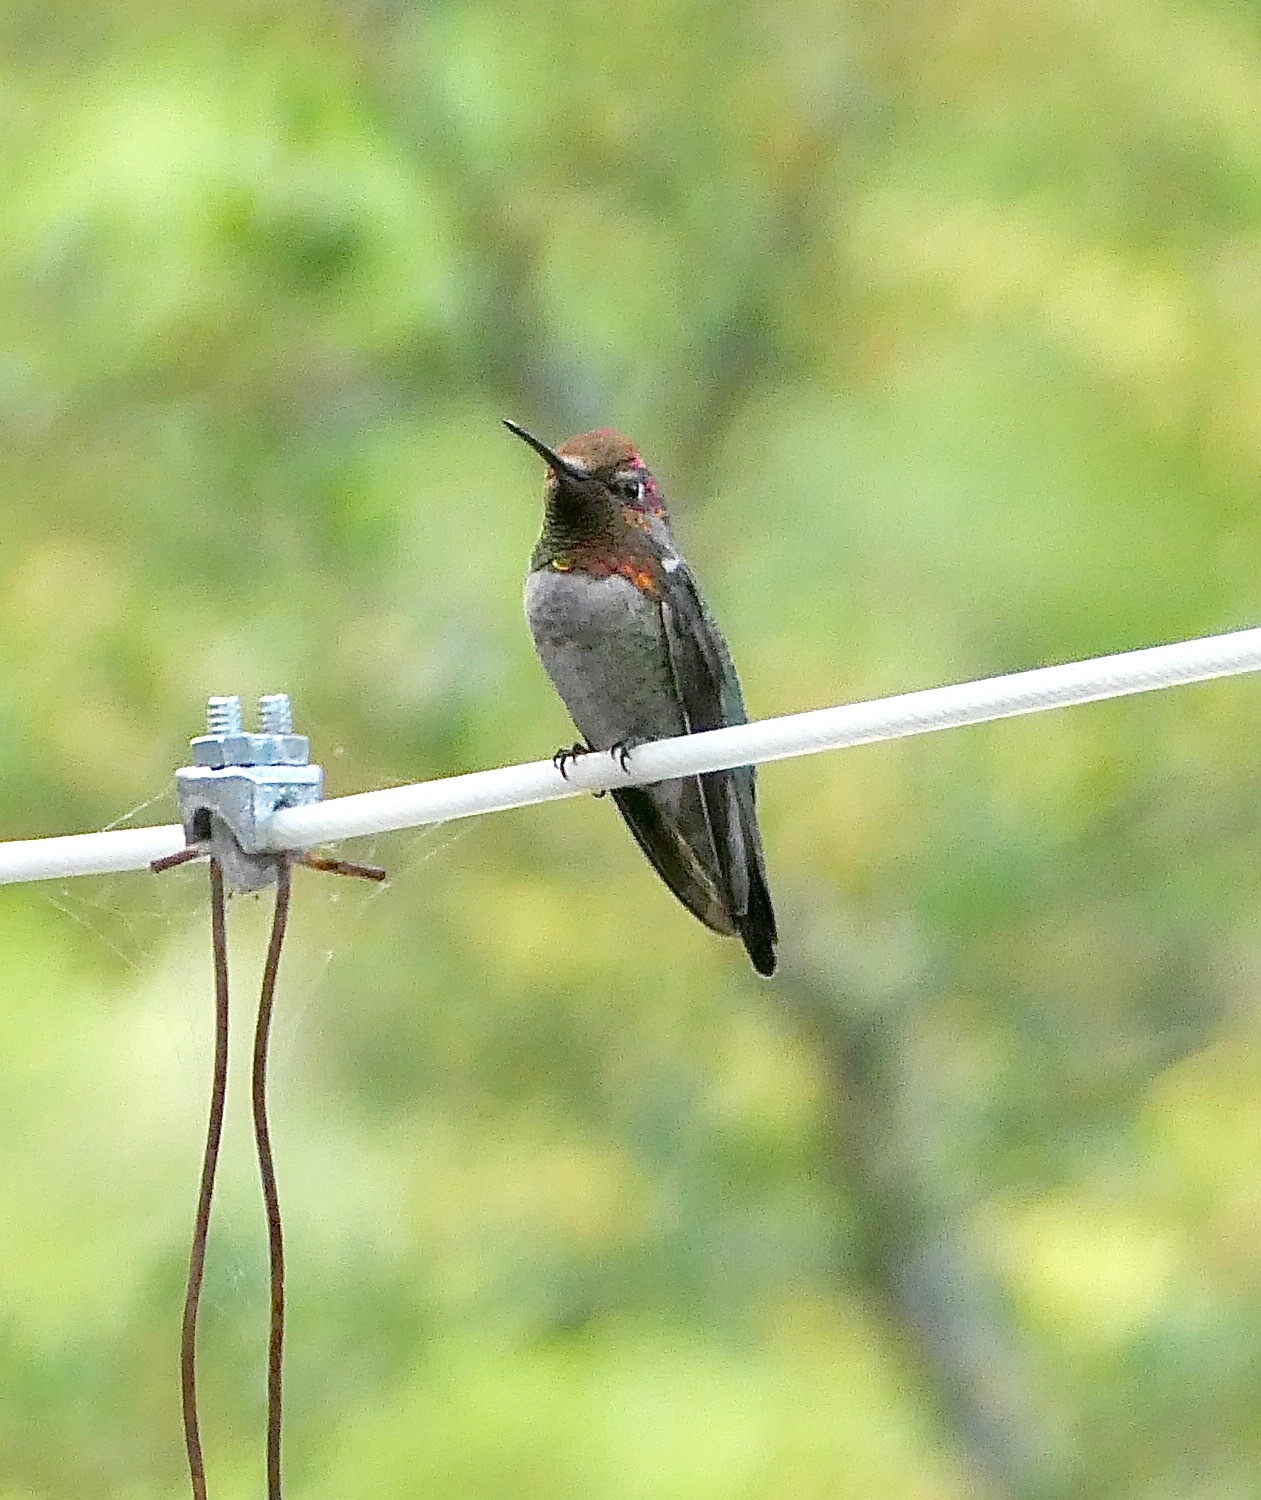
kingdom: Animalia
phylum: Chordata
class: Aves
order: Apodiformes
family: Trochilidae
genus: Calypte
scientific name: Calypte anna
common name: Anna's hummingbird
